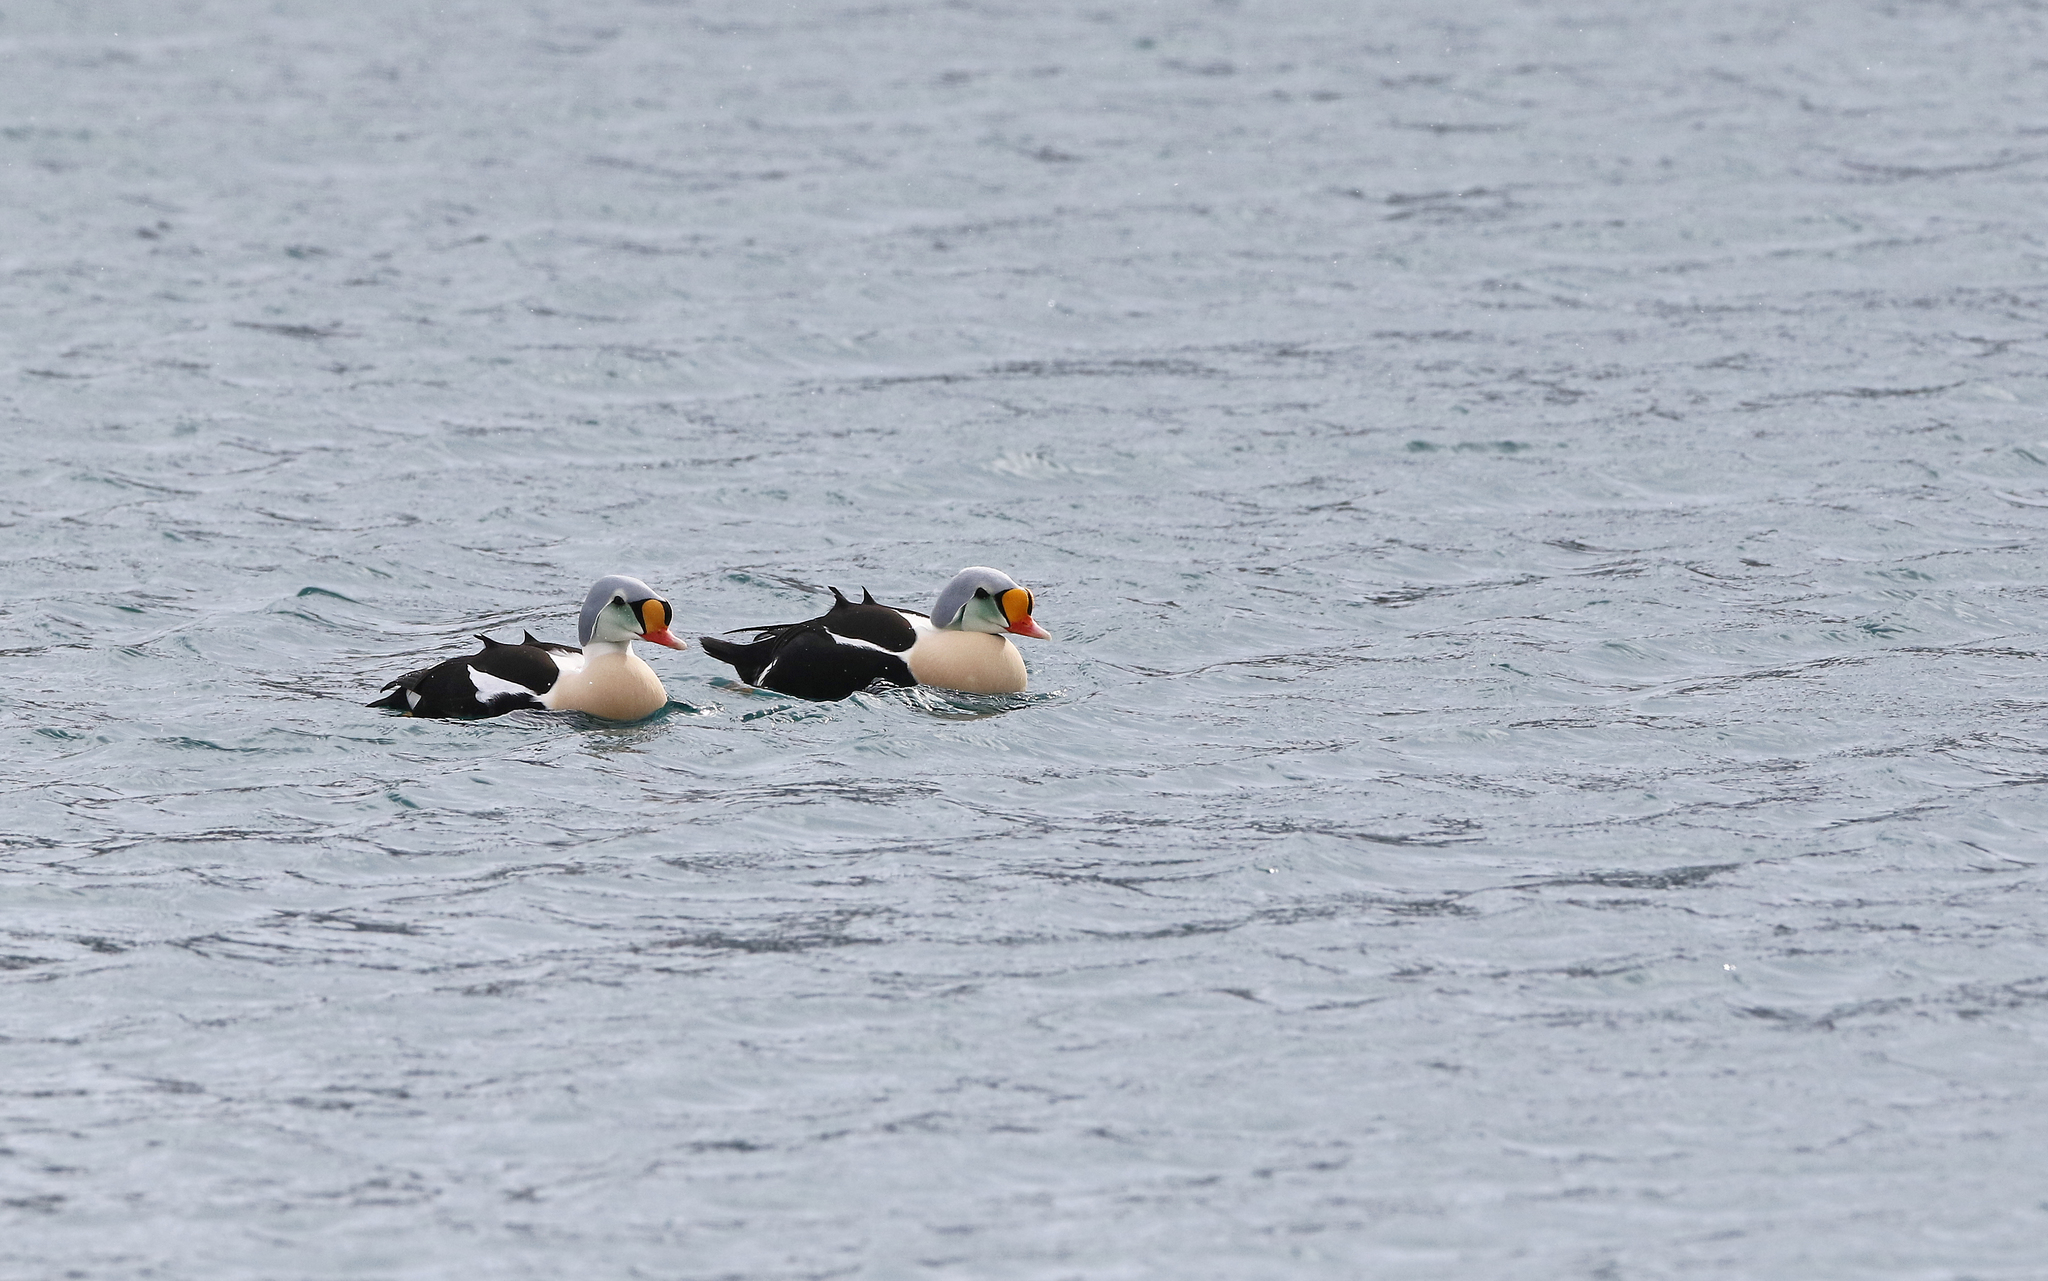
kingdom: Animalia
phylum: Chordata
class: Aves
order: Anseriformes
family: Anatidae
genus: Somateria
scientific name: Somateria spectabilis
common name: King eider
